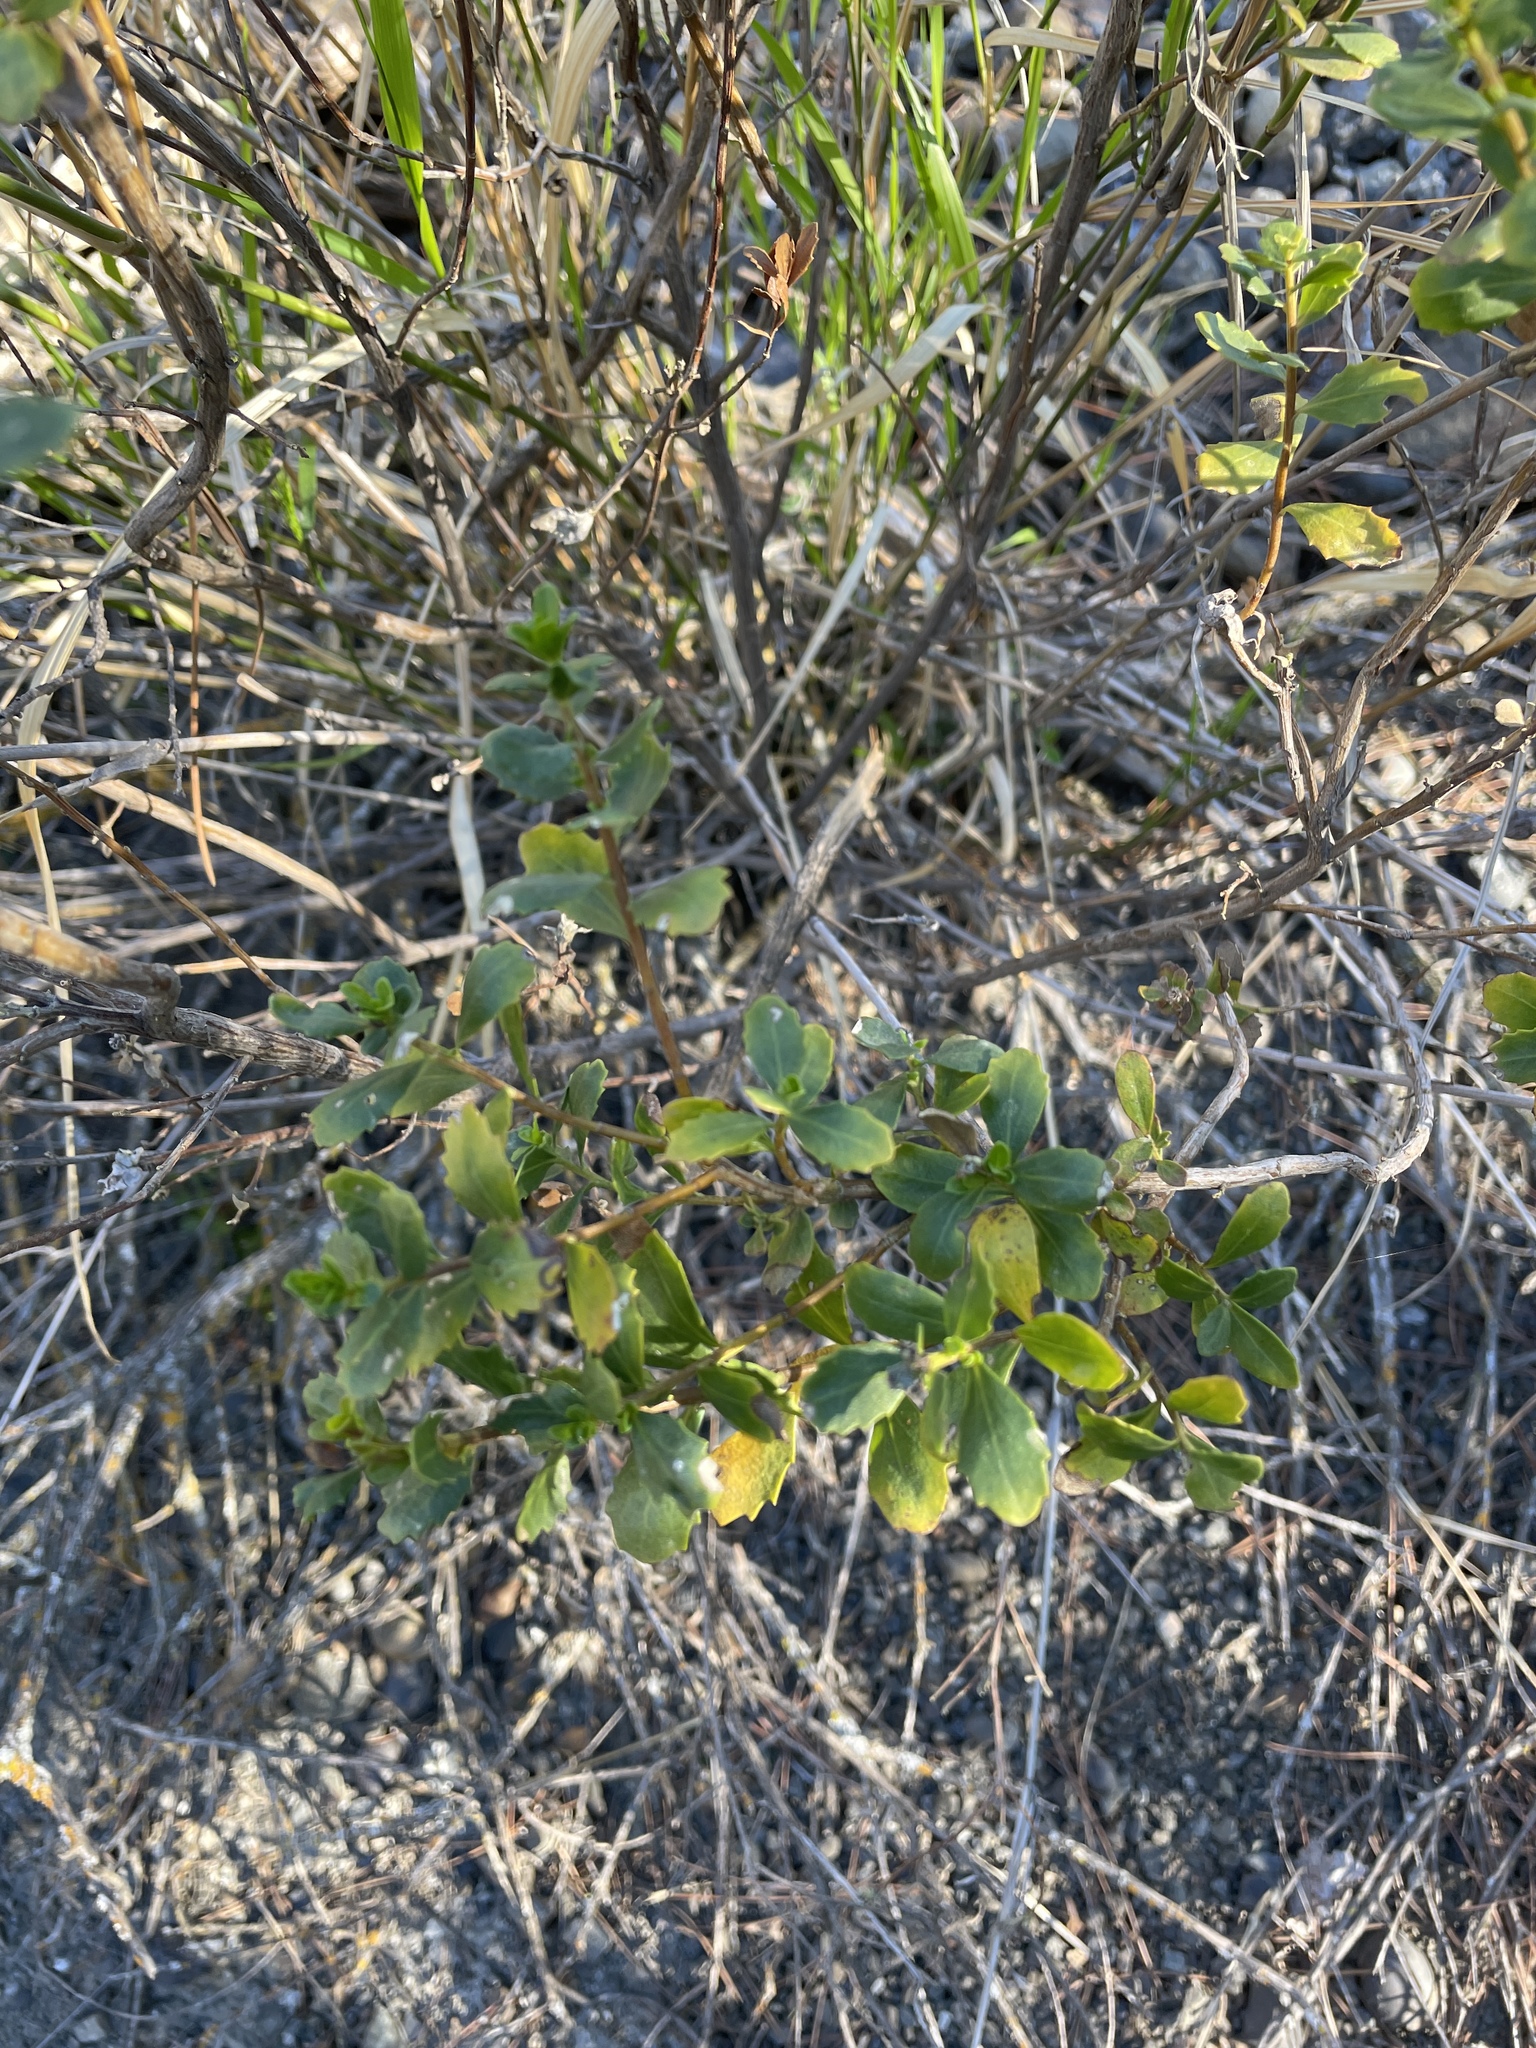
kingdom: Plantae
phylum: Tracheophyta
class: Magnoliopsida
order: Asterales
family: Asteraceae
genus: Baccharis
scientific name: Baccharis pilularis
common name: Coyotebrush
